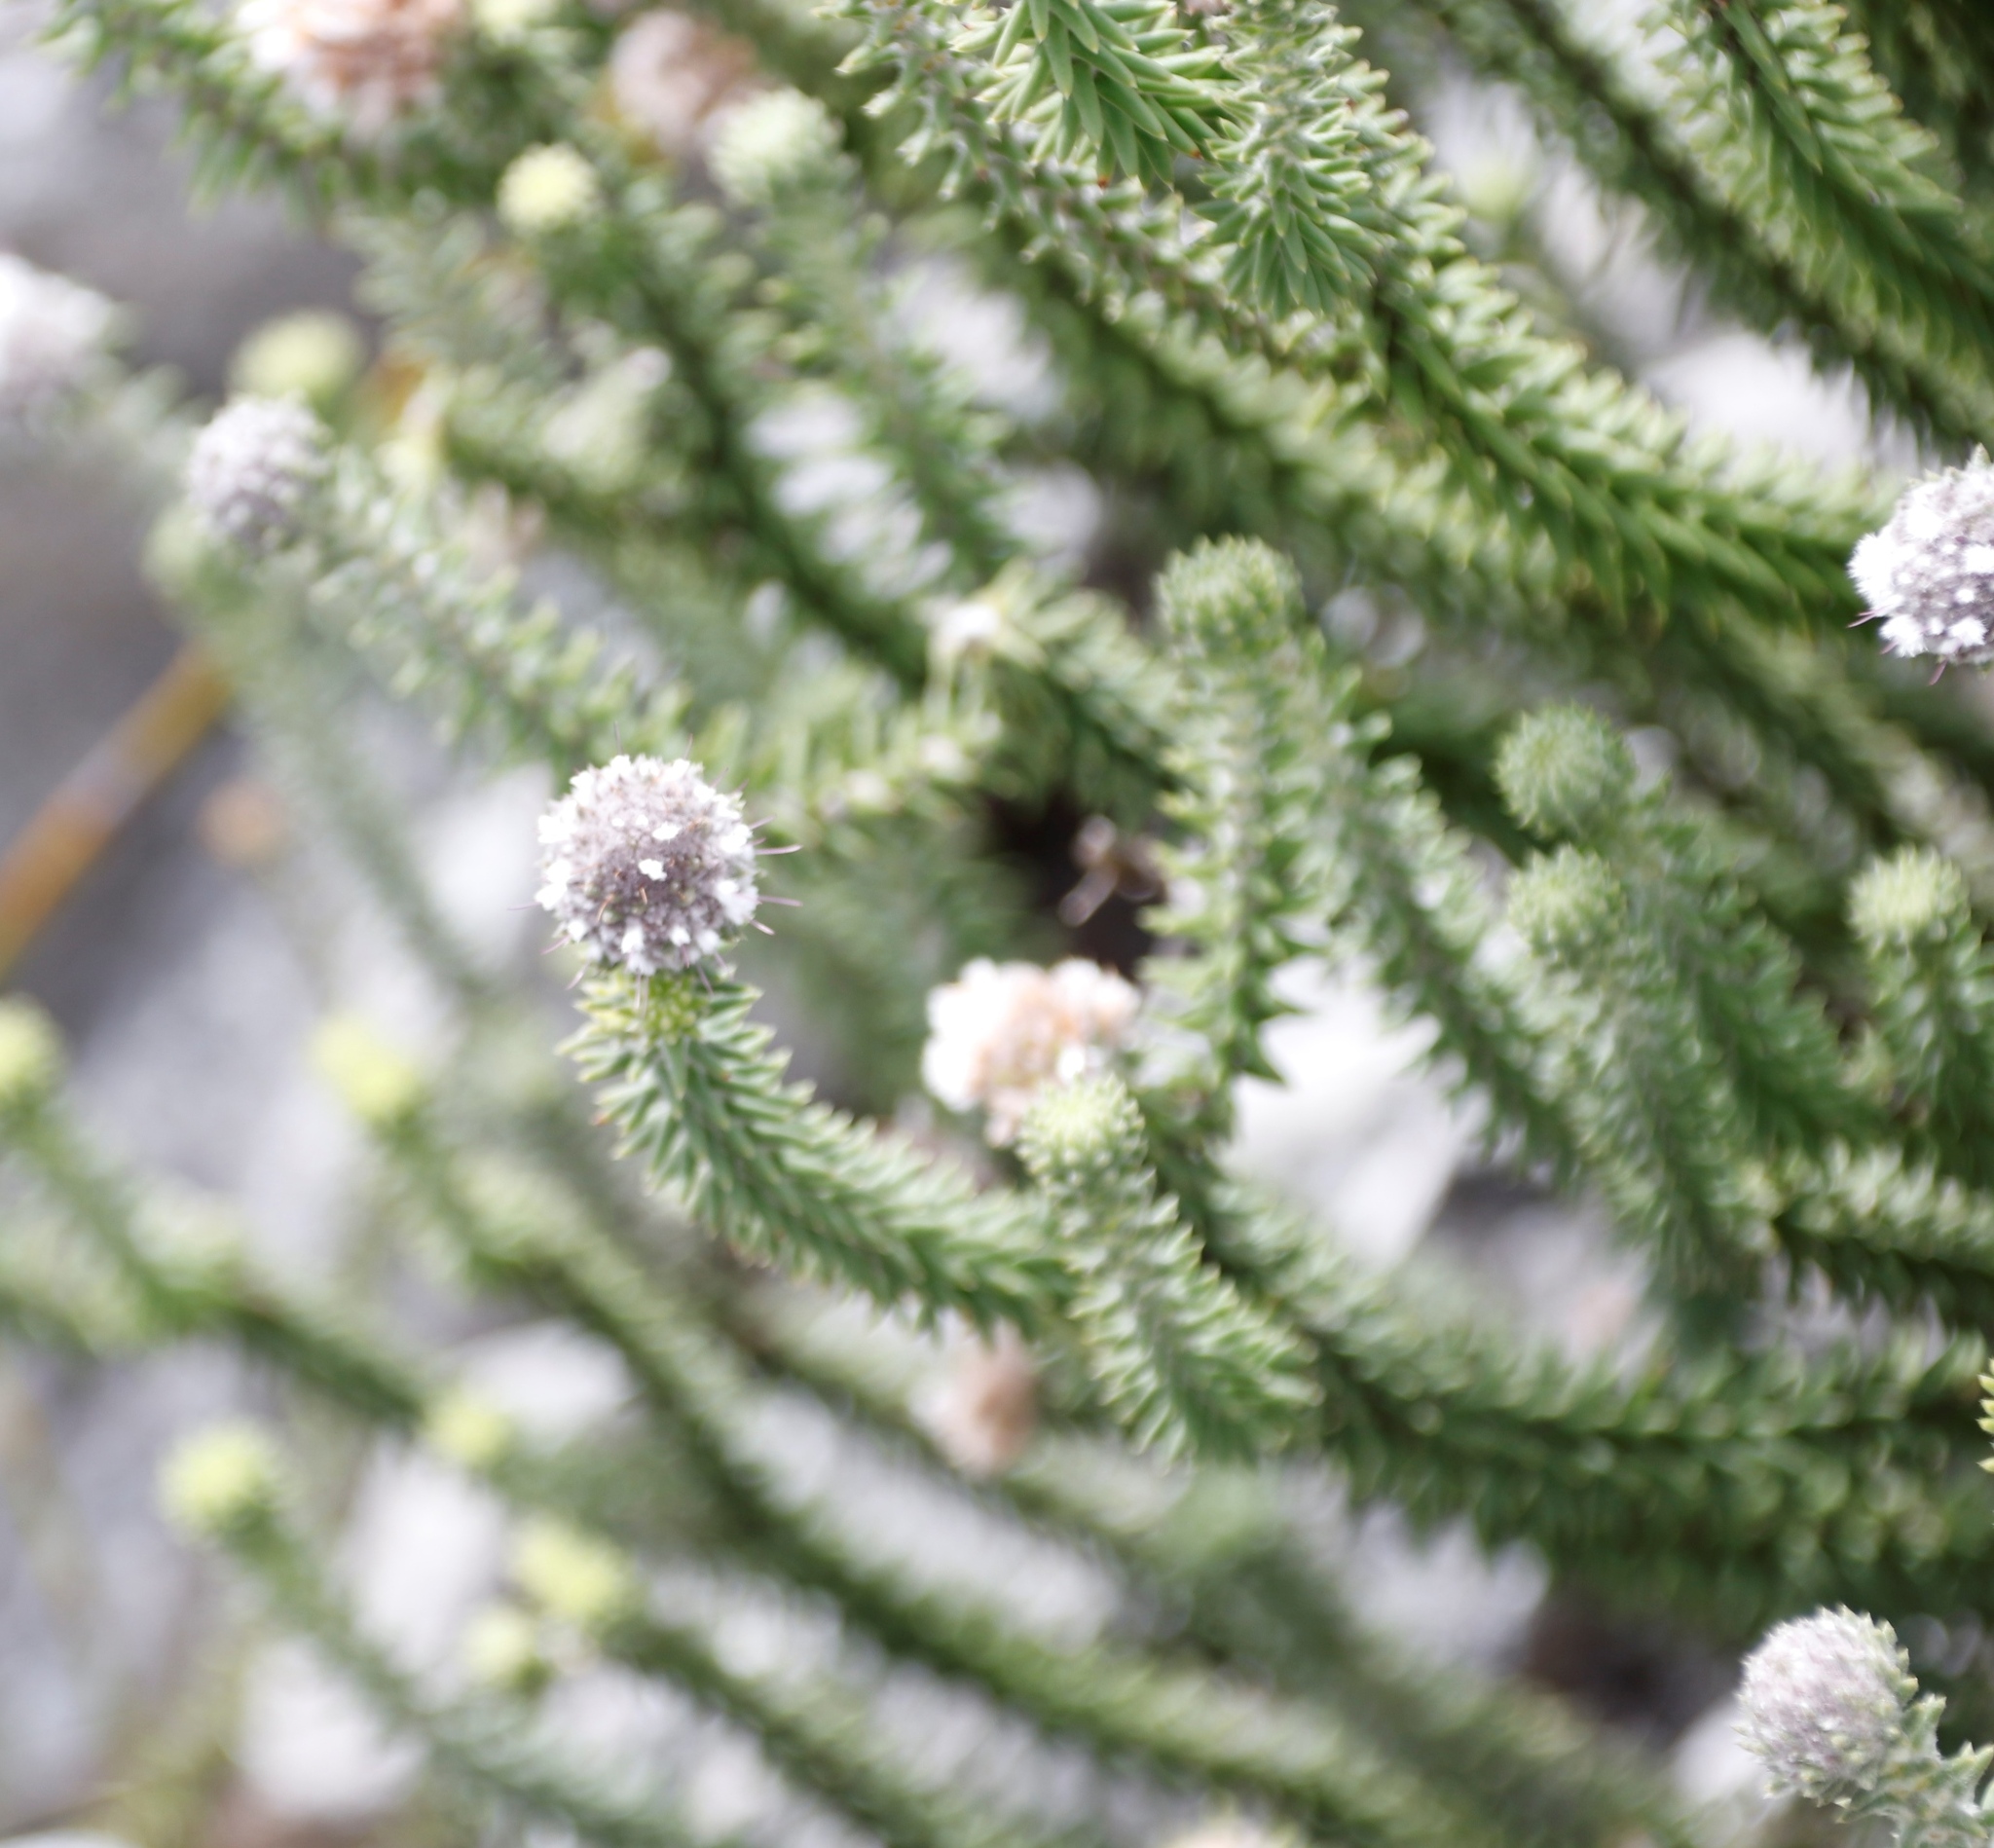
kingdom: Plantae
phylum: Tracheophyta
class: Magnoliopsida
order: Lamiales
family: Stilbaceae
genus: Kogelbergia
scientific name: Kogelbergia verticillata
